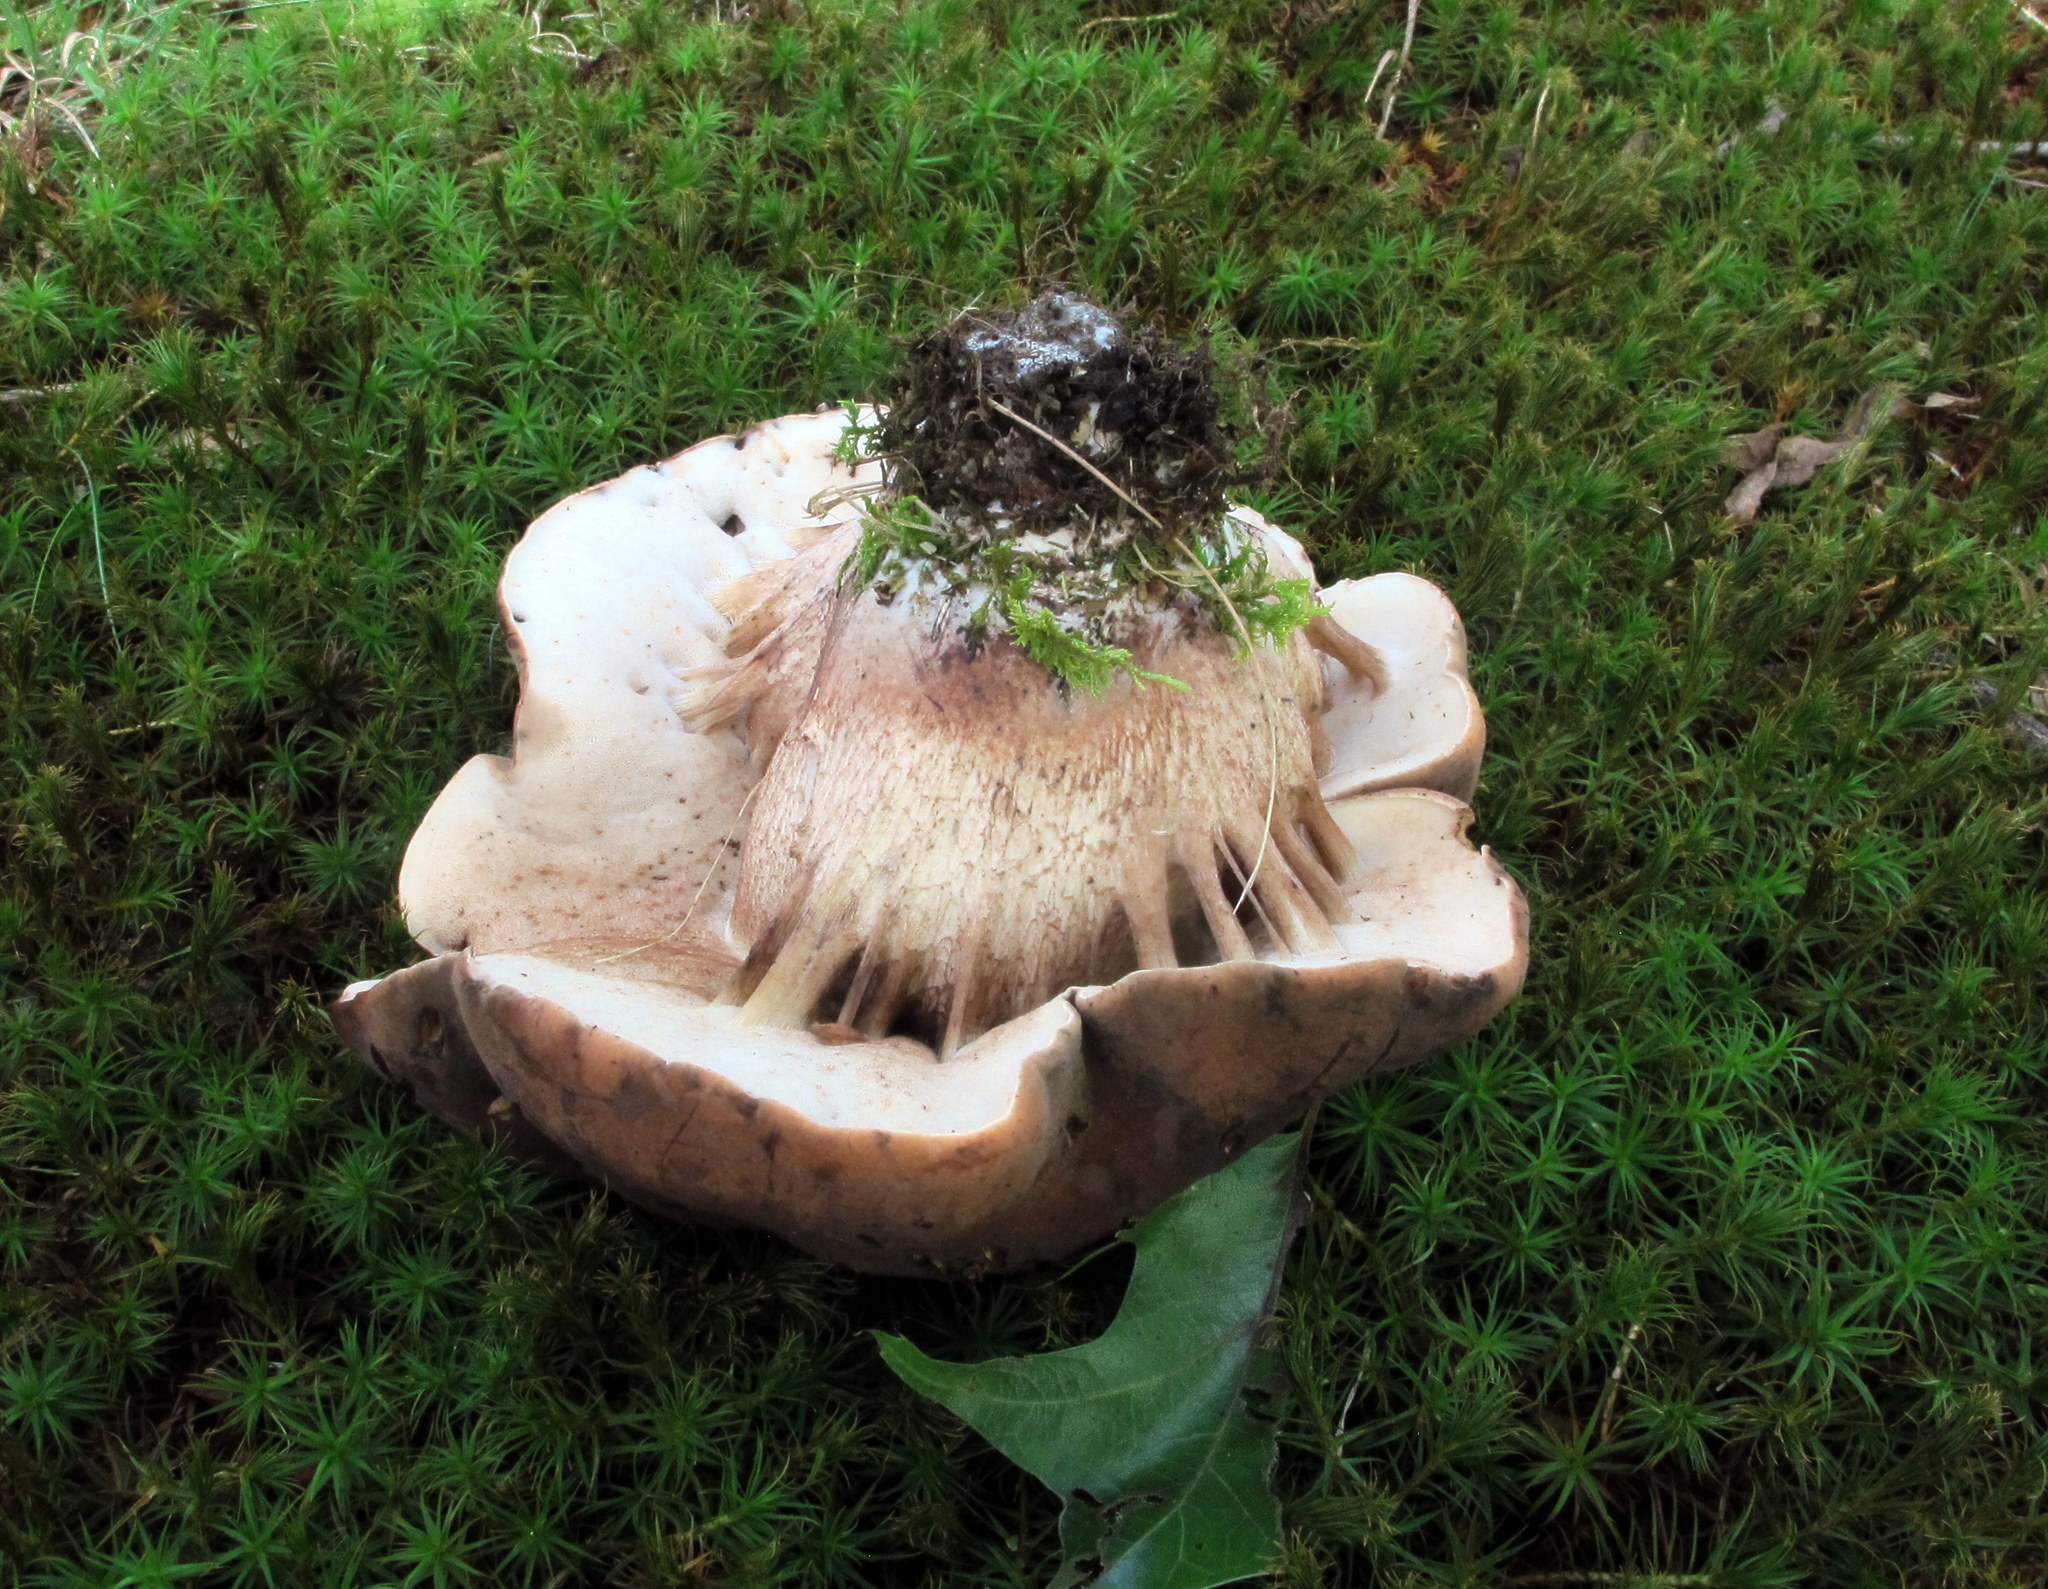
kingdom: Fungi
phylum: Basidiomycota
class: Agaricomycetes
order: Boletales
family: Boletaceae
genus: Tylopilus
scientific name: Tylopilus variobrunneus
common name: Brown-net bolete
